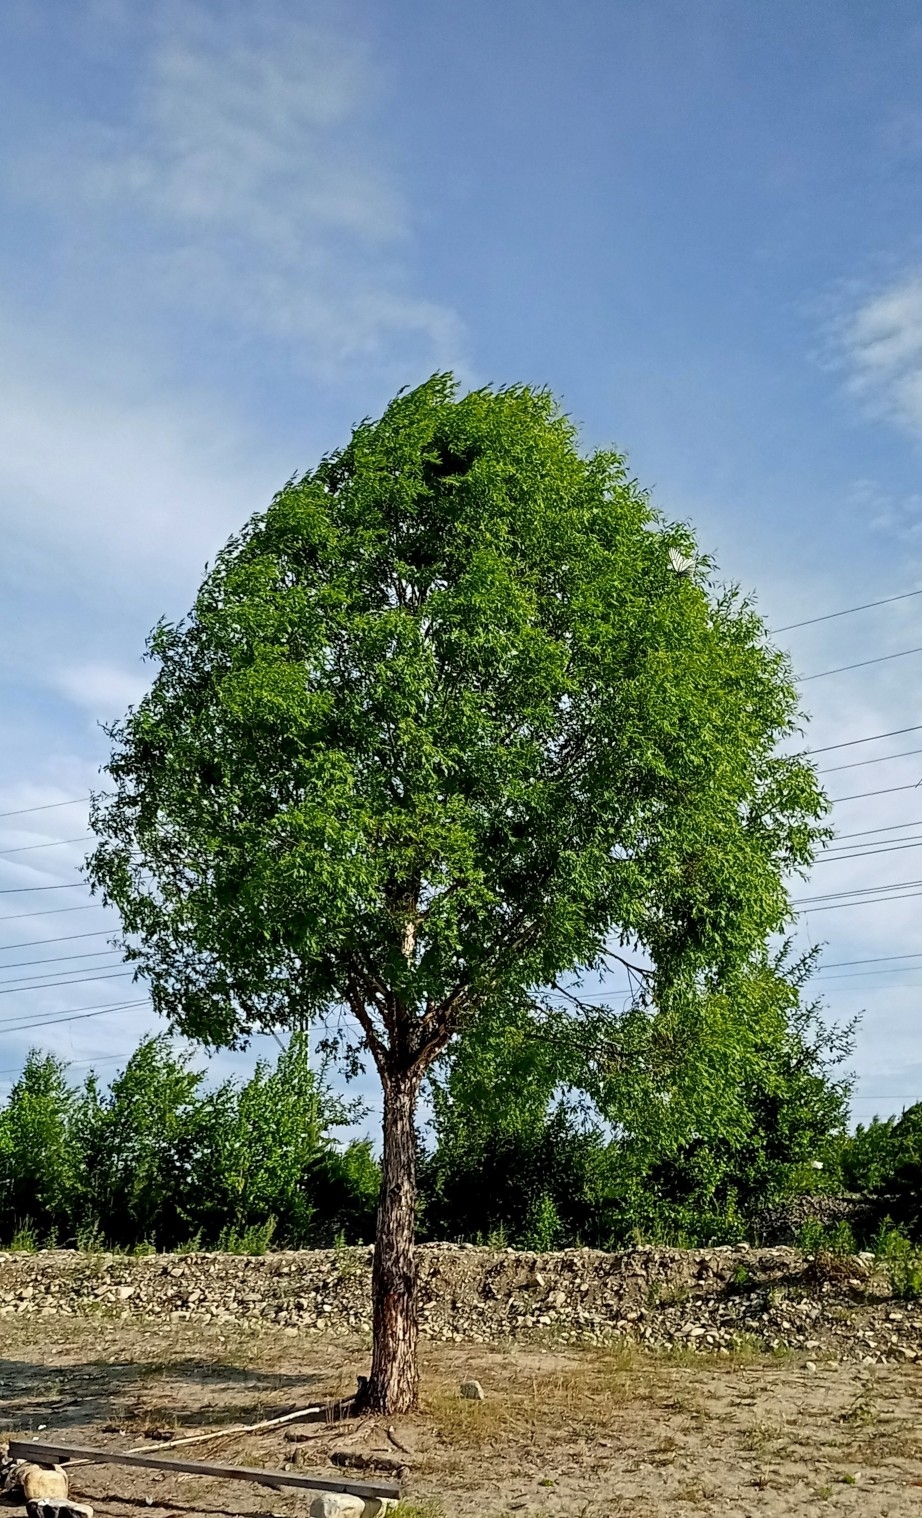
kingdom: Plantae
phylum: Tracheophyta
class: Magnoliopsida
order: Rosales
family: Ulmaceae
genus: Ulmus
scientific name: Ulmus pumila
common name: Siberian elm
